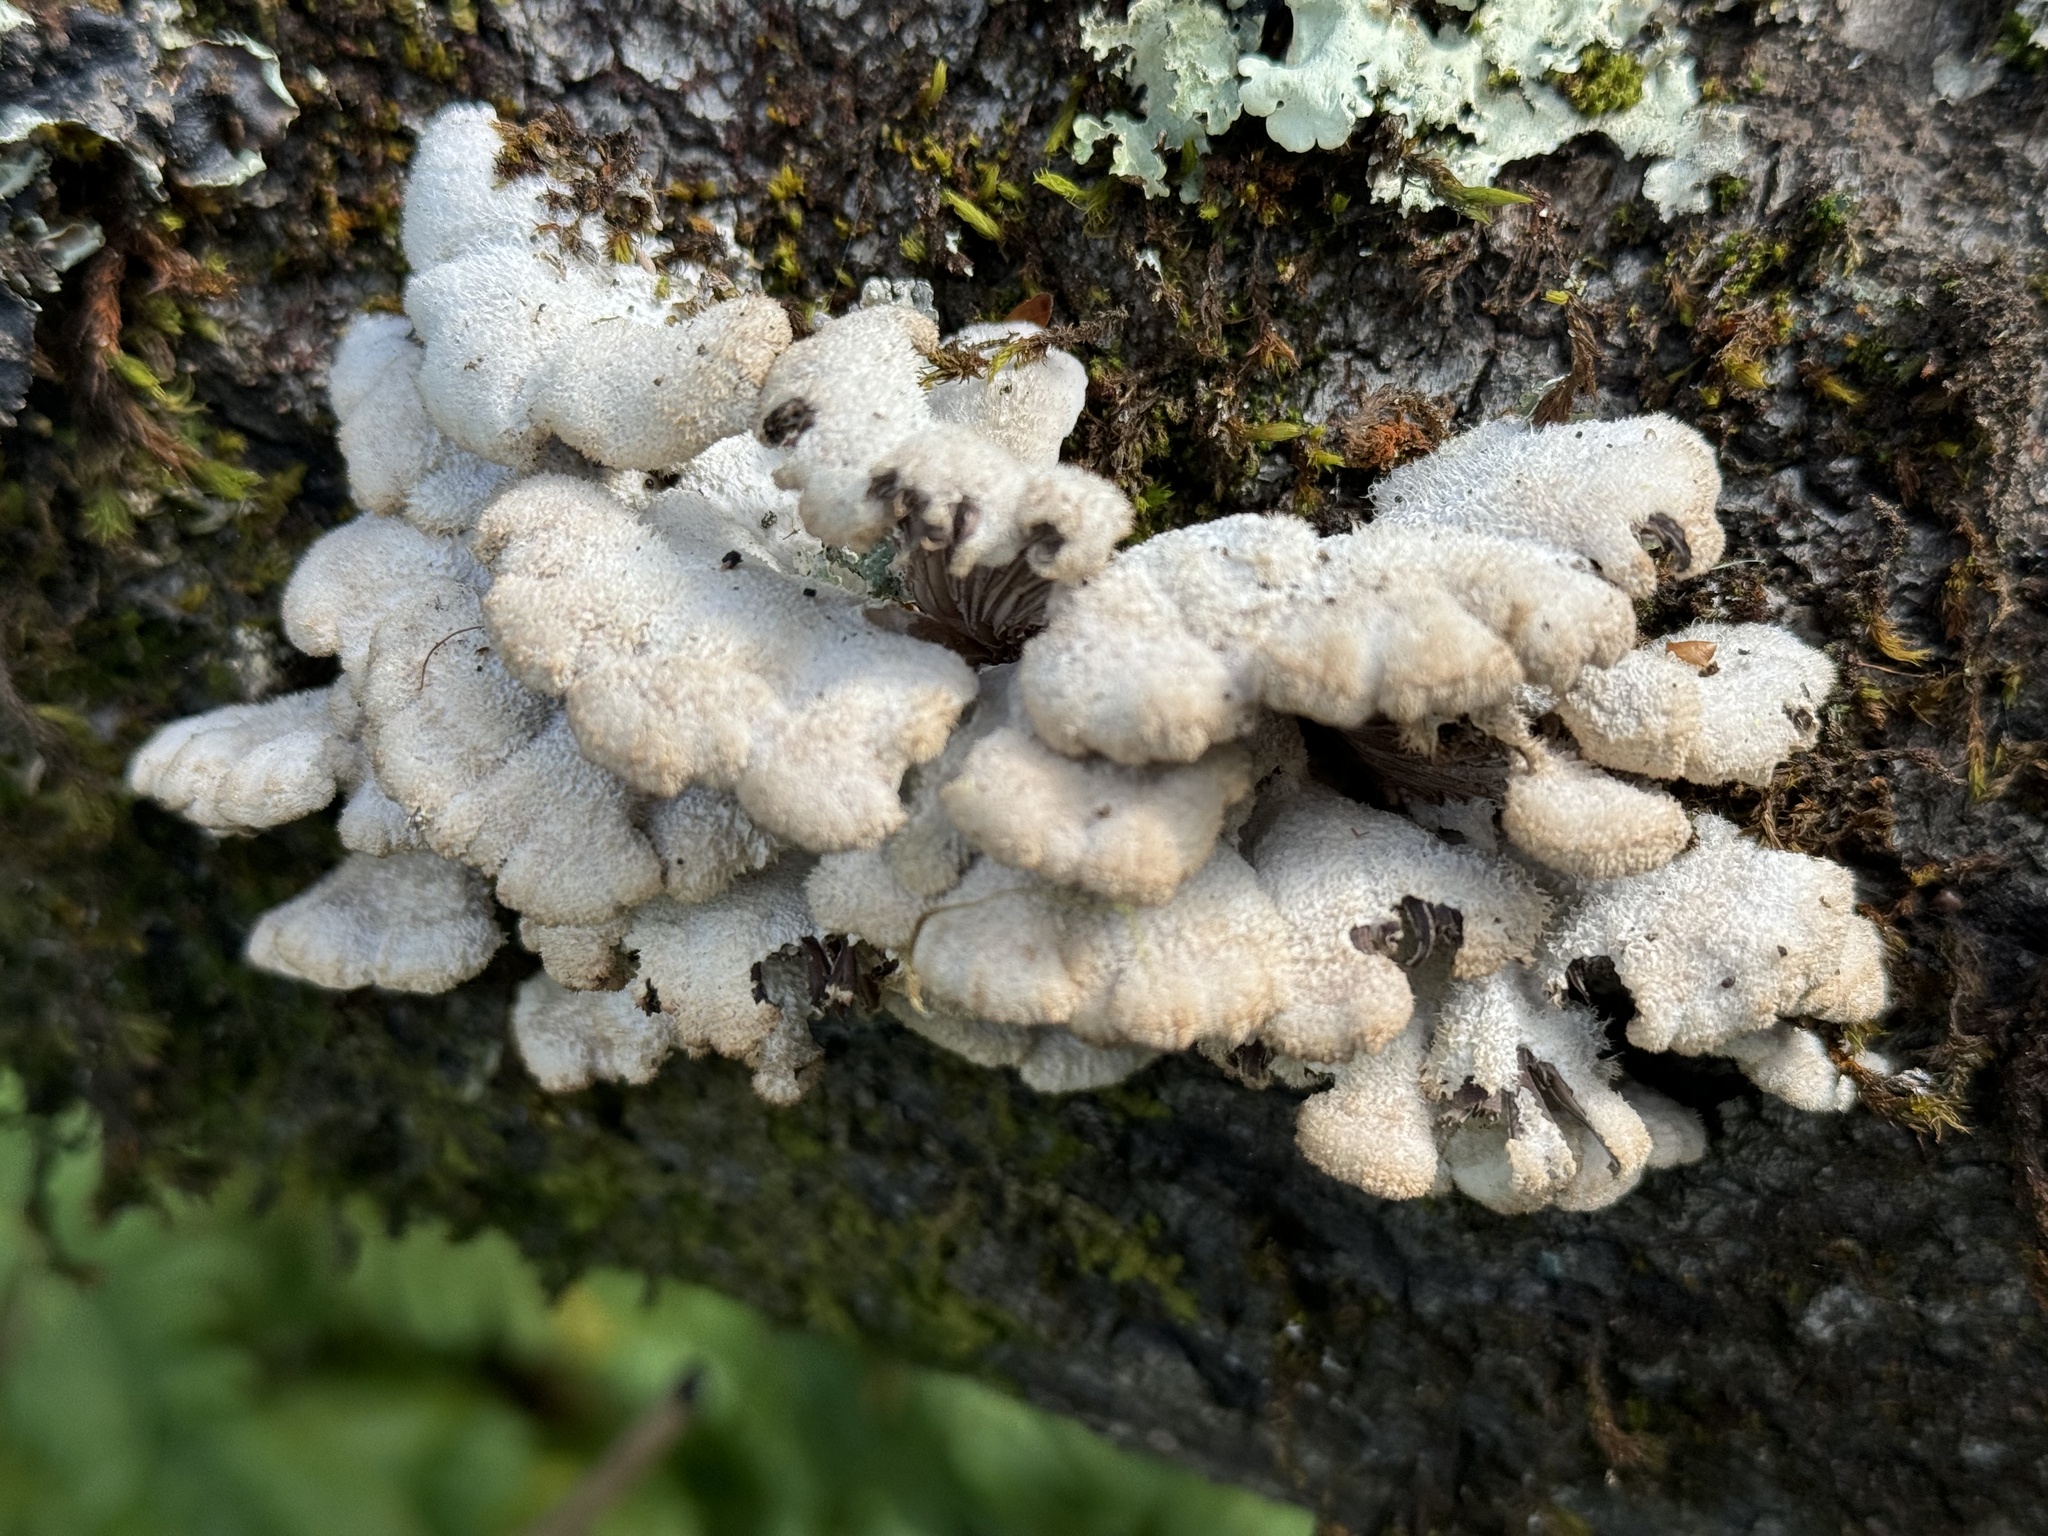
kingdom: Fungi
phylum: Basidiomycota
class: Agaricomycetes
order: Agaricales
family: Schizophyllaceae
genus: Schizophyllum
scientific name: Schizophyllum commune
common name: Common porecrust
